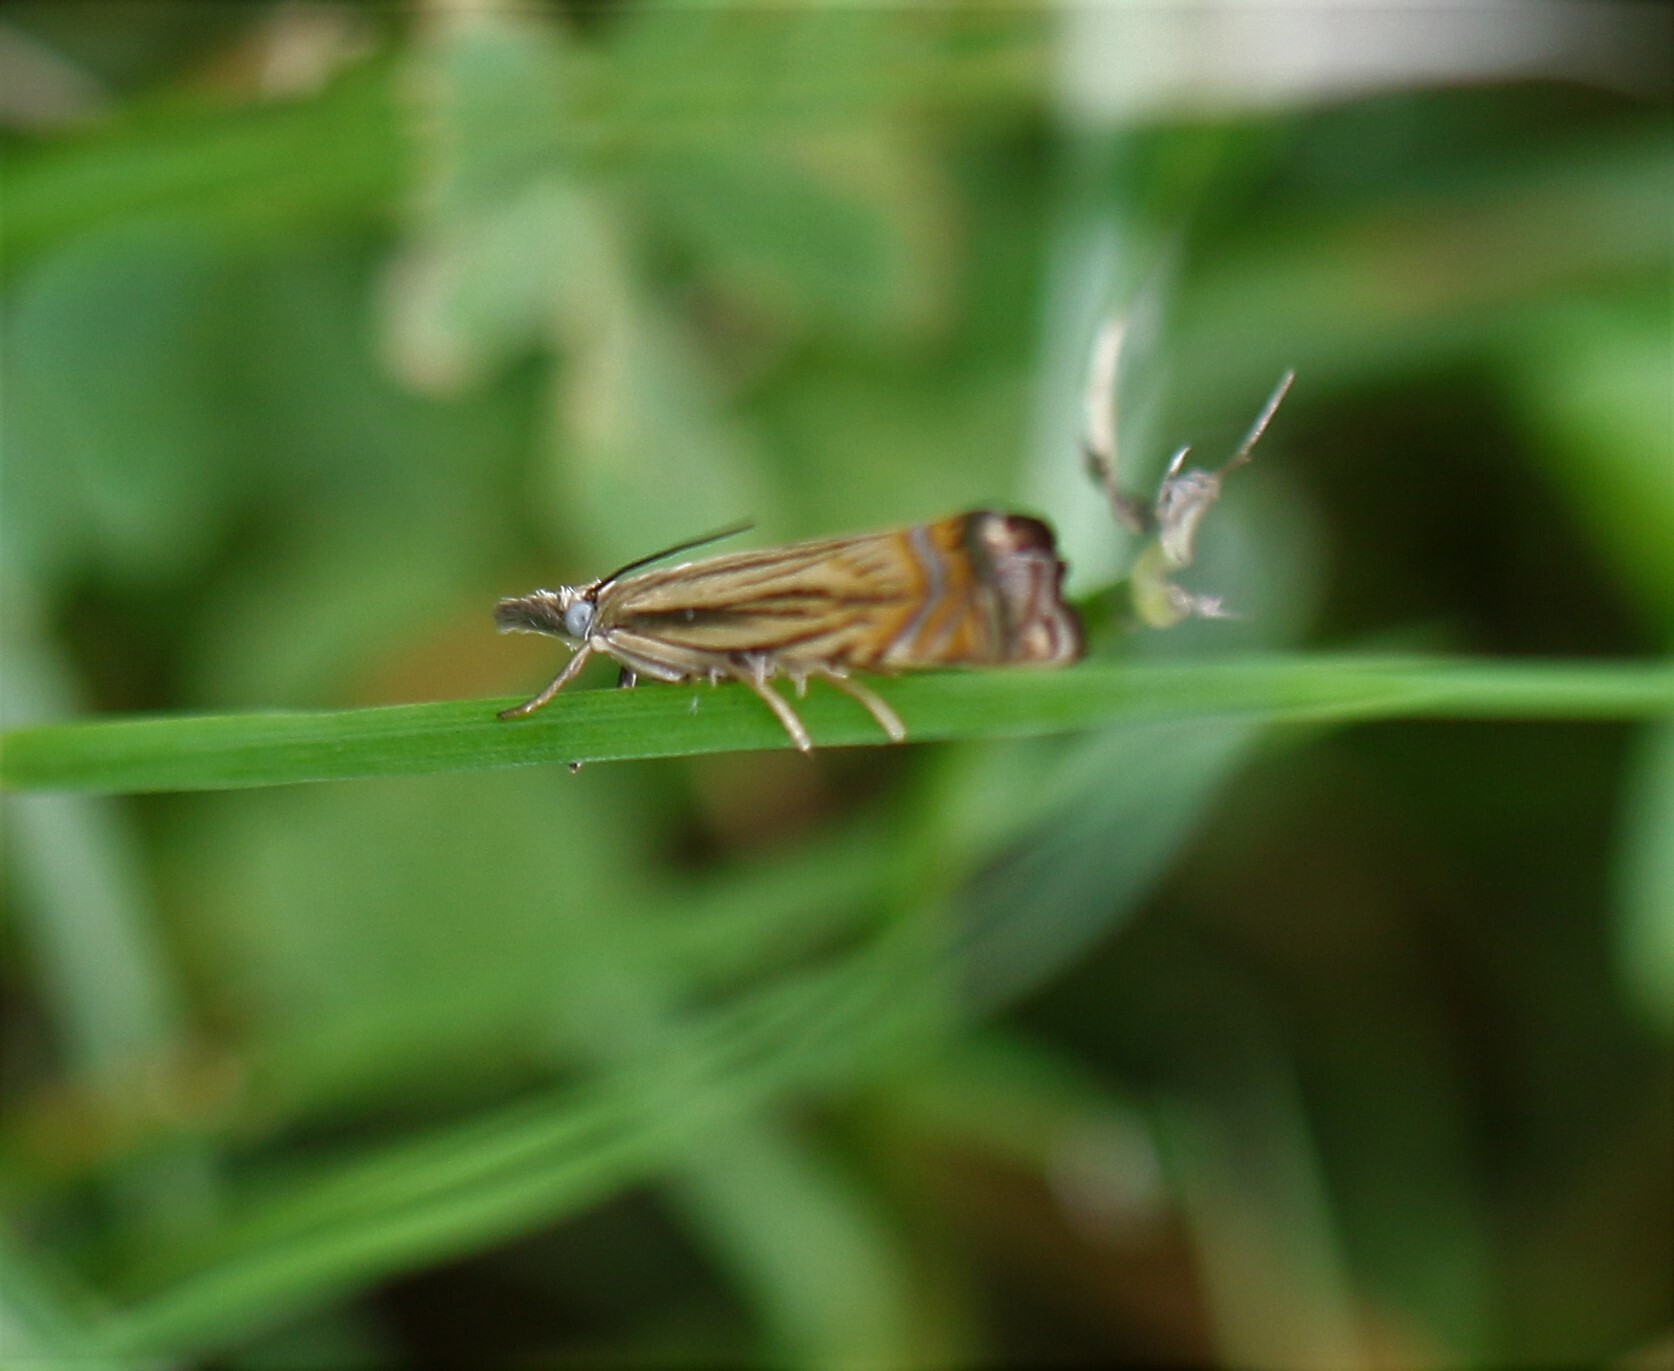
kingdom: Animalia
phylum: Arthropoda
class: Insecta
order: Lepidoptera
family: Crambidae
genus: Chrysoteuchia
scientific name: Chrysoteuchia topiarius
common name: Topiary grass-veneer
